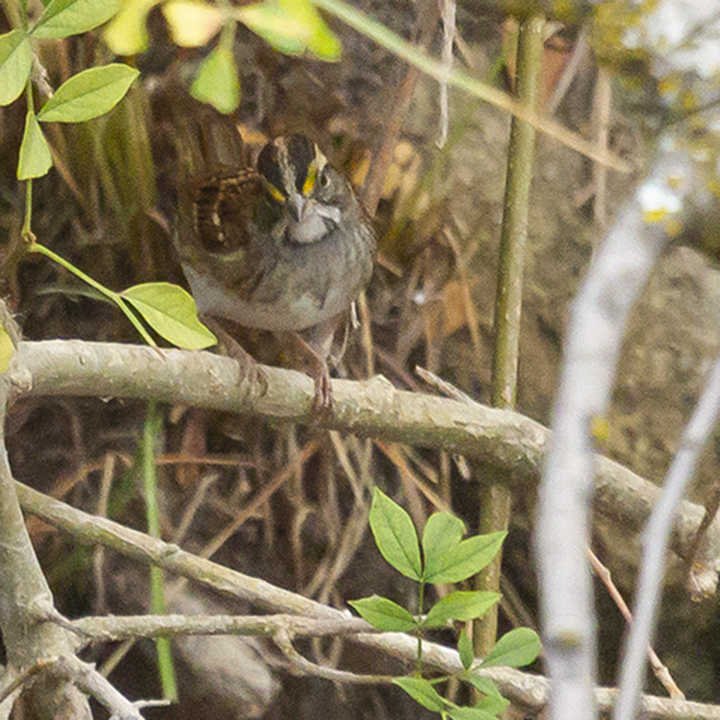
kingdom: Animalia
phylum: Chordata
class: Aves
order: Passeriformes
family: Passerellidae
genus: Zonotrichia
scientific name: Zonotrichia albicollis
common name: White-throated sparrow
